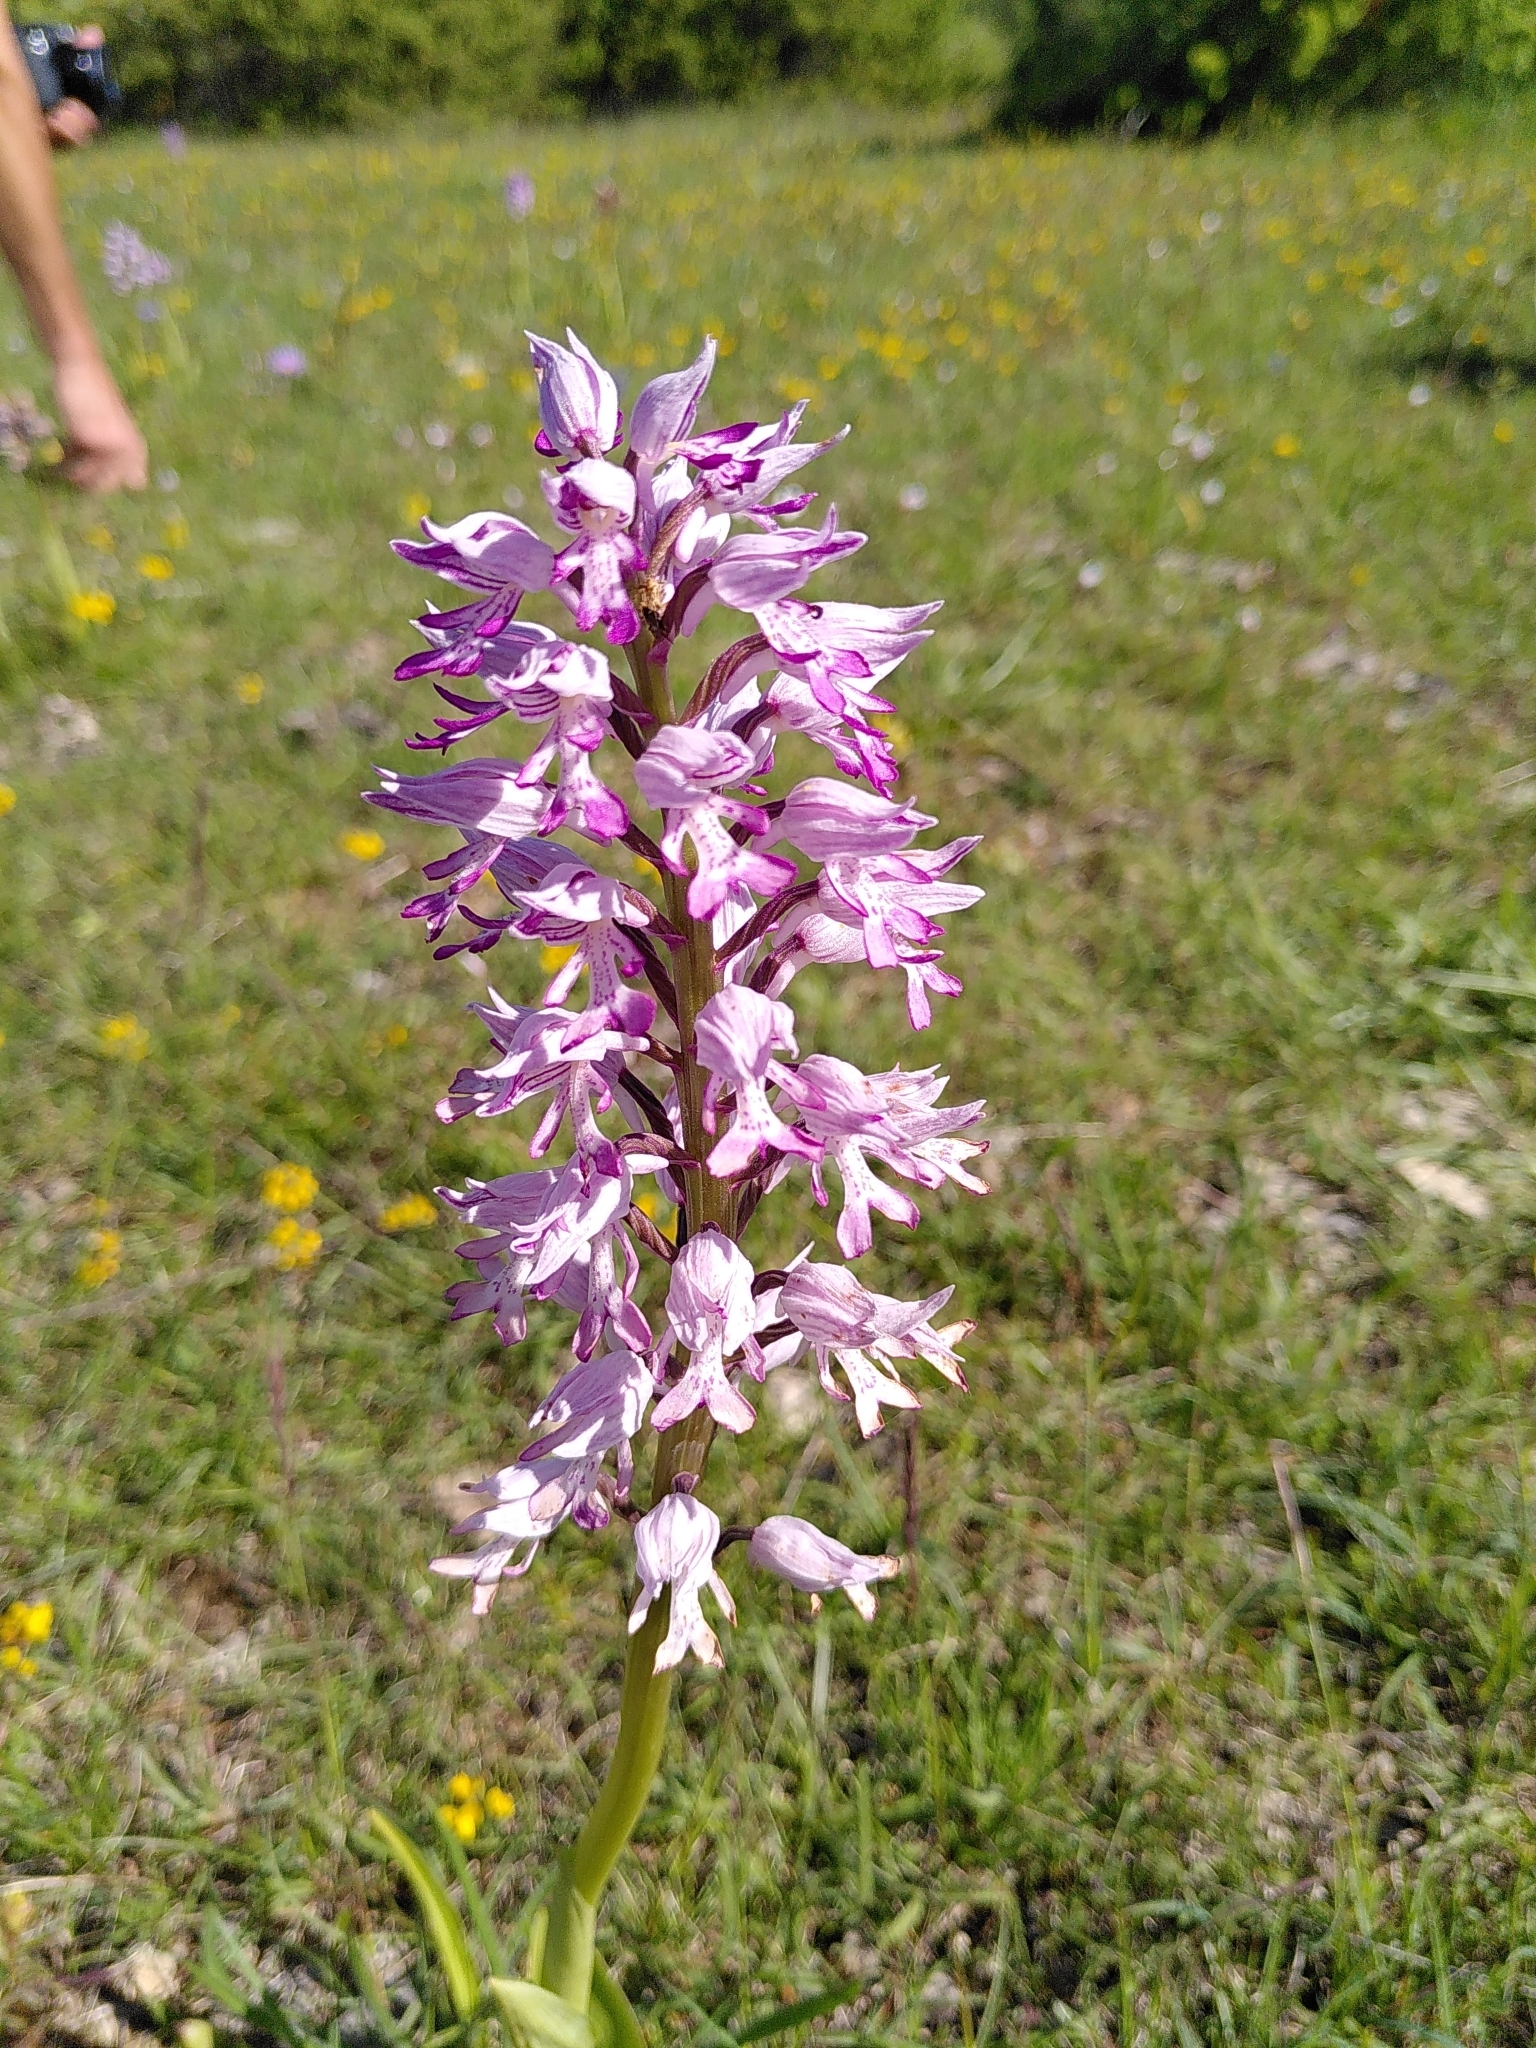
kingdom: Plantae
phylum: Tracheophyta
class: Liliopsida
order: Asparagales
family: Orchidaceae
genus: Orchis
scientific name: Orchis militaris
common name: Military orchid
